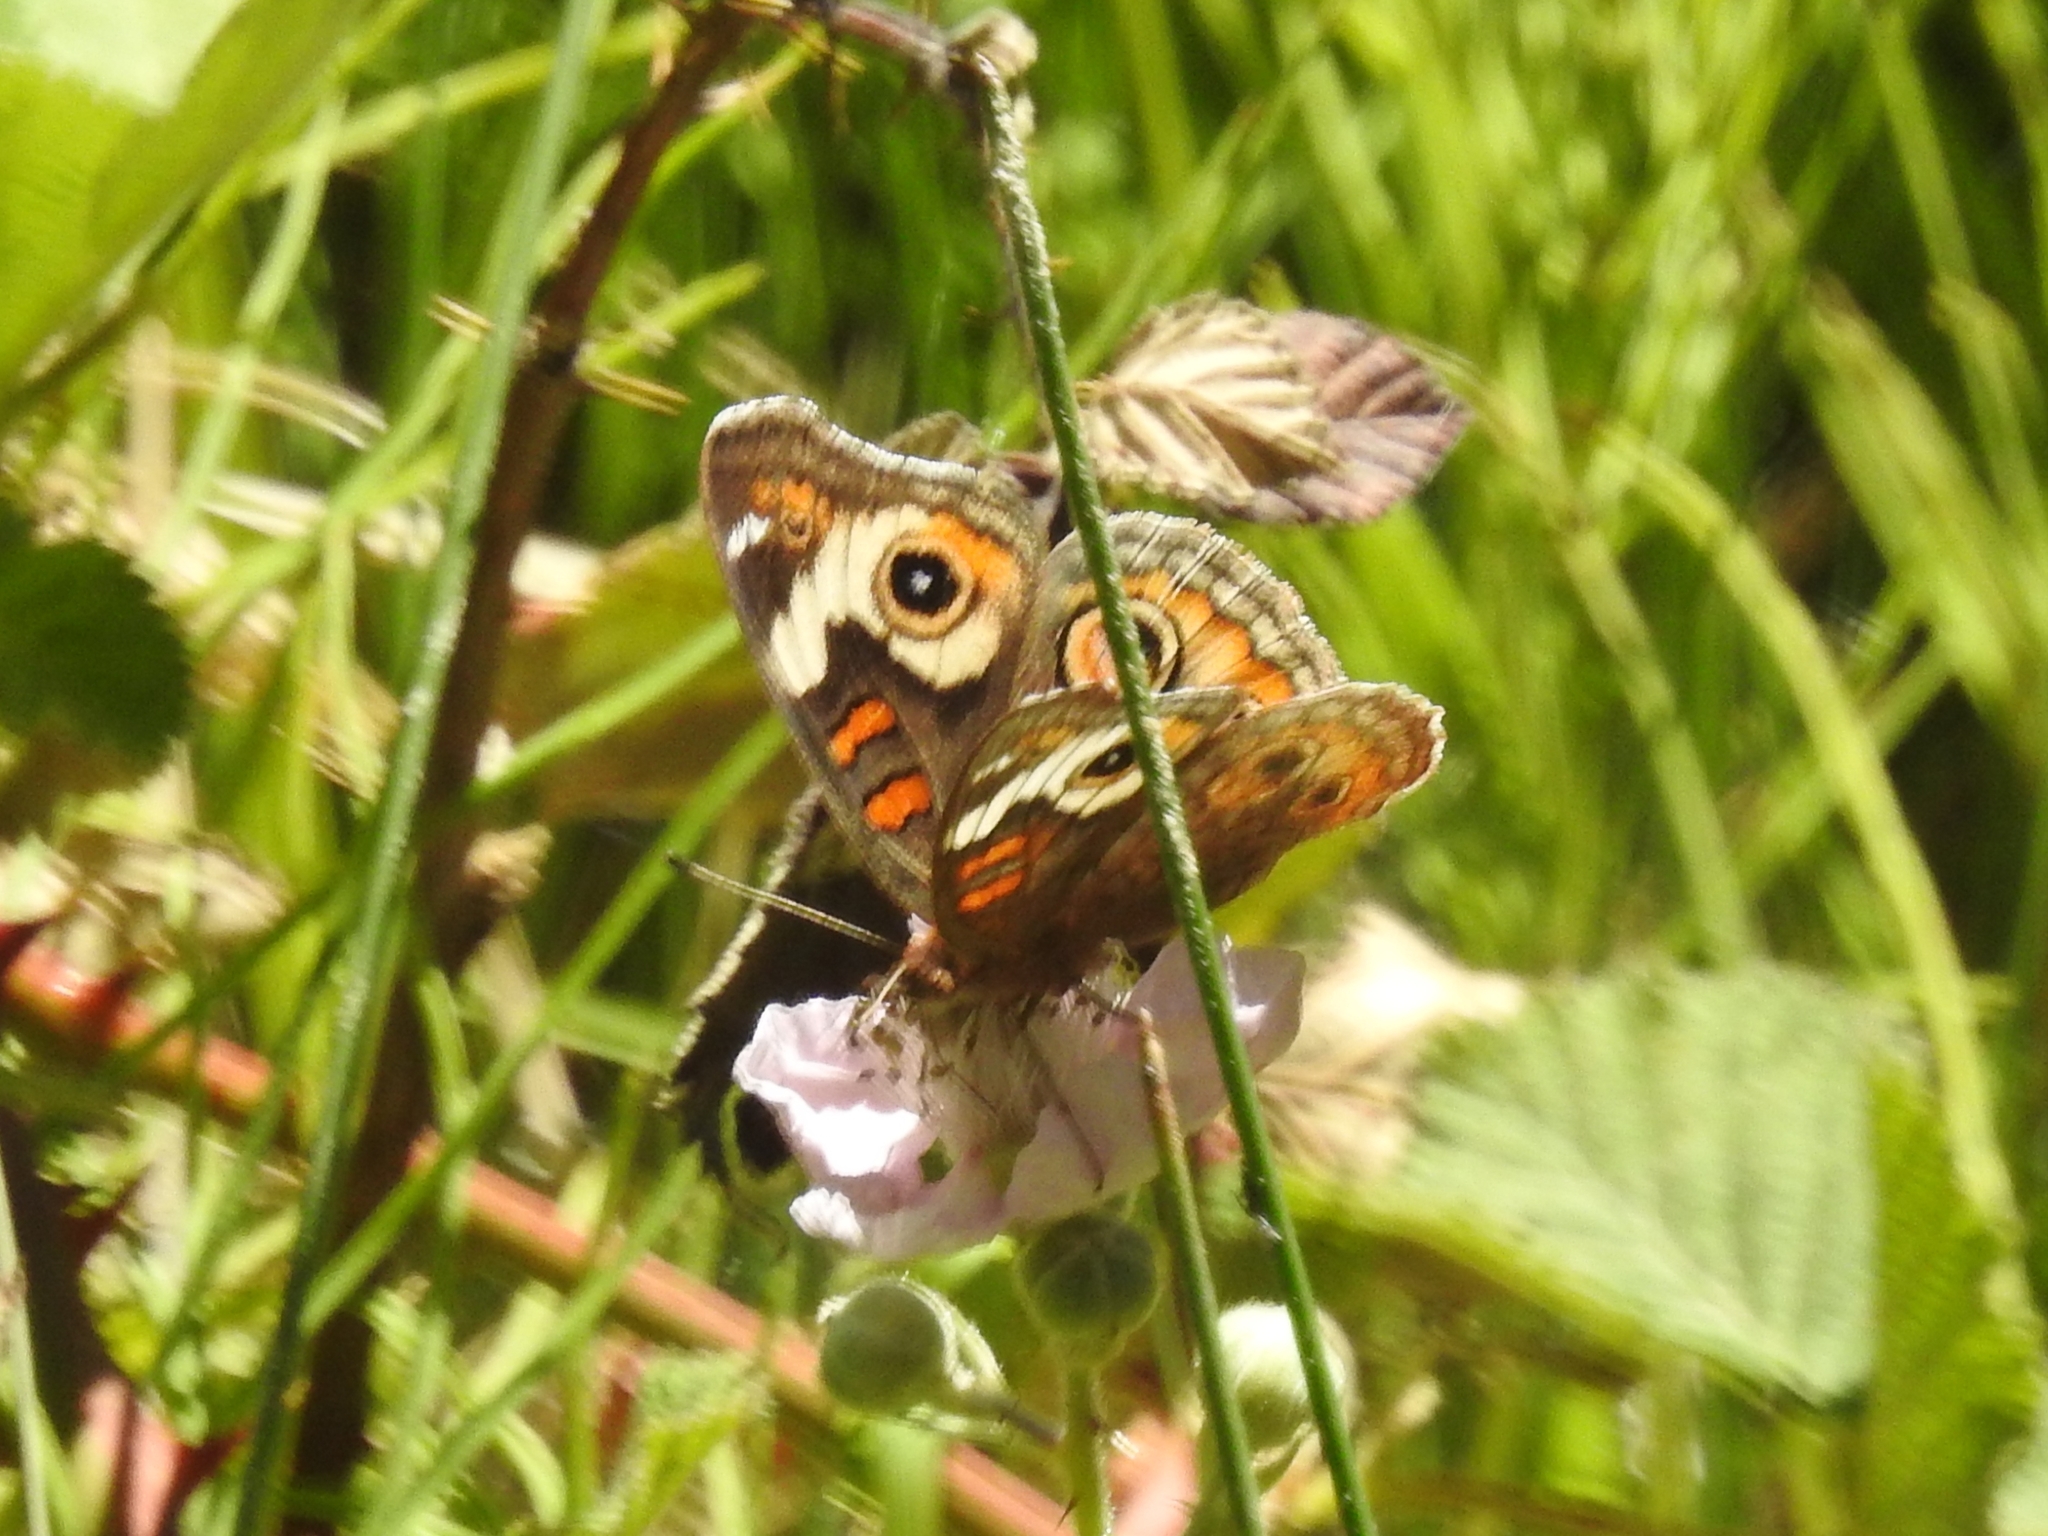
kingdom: Animalia
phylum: Arthropoda
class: Insecta
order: Lepidoptera
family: Nymphalidae
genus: Junonia
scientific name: Junonia grisea
